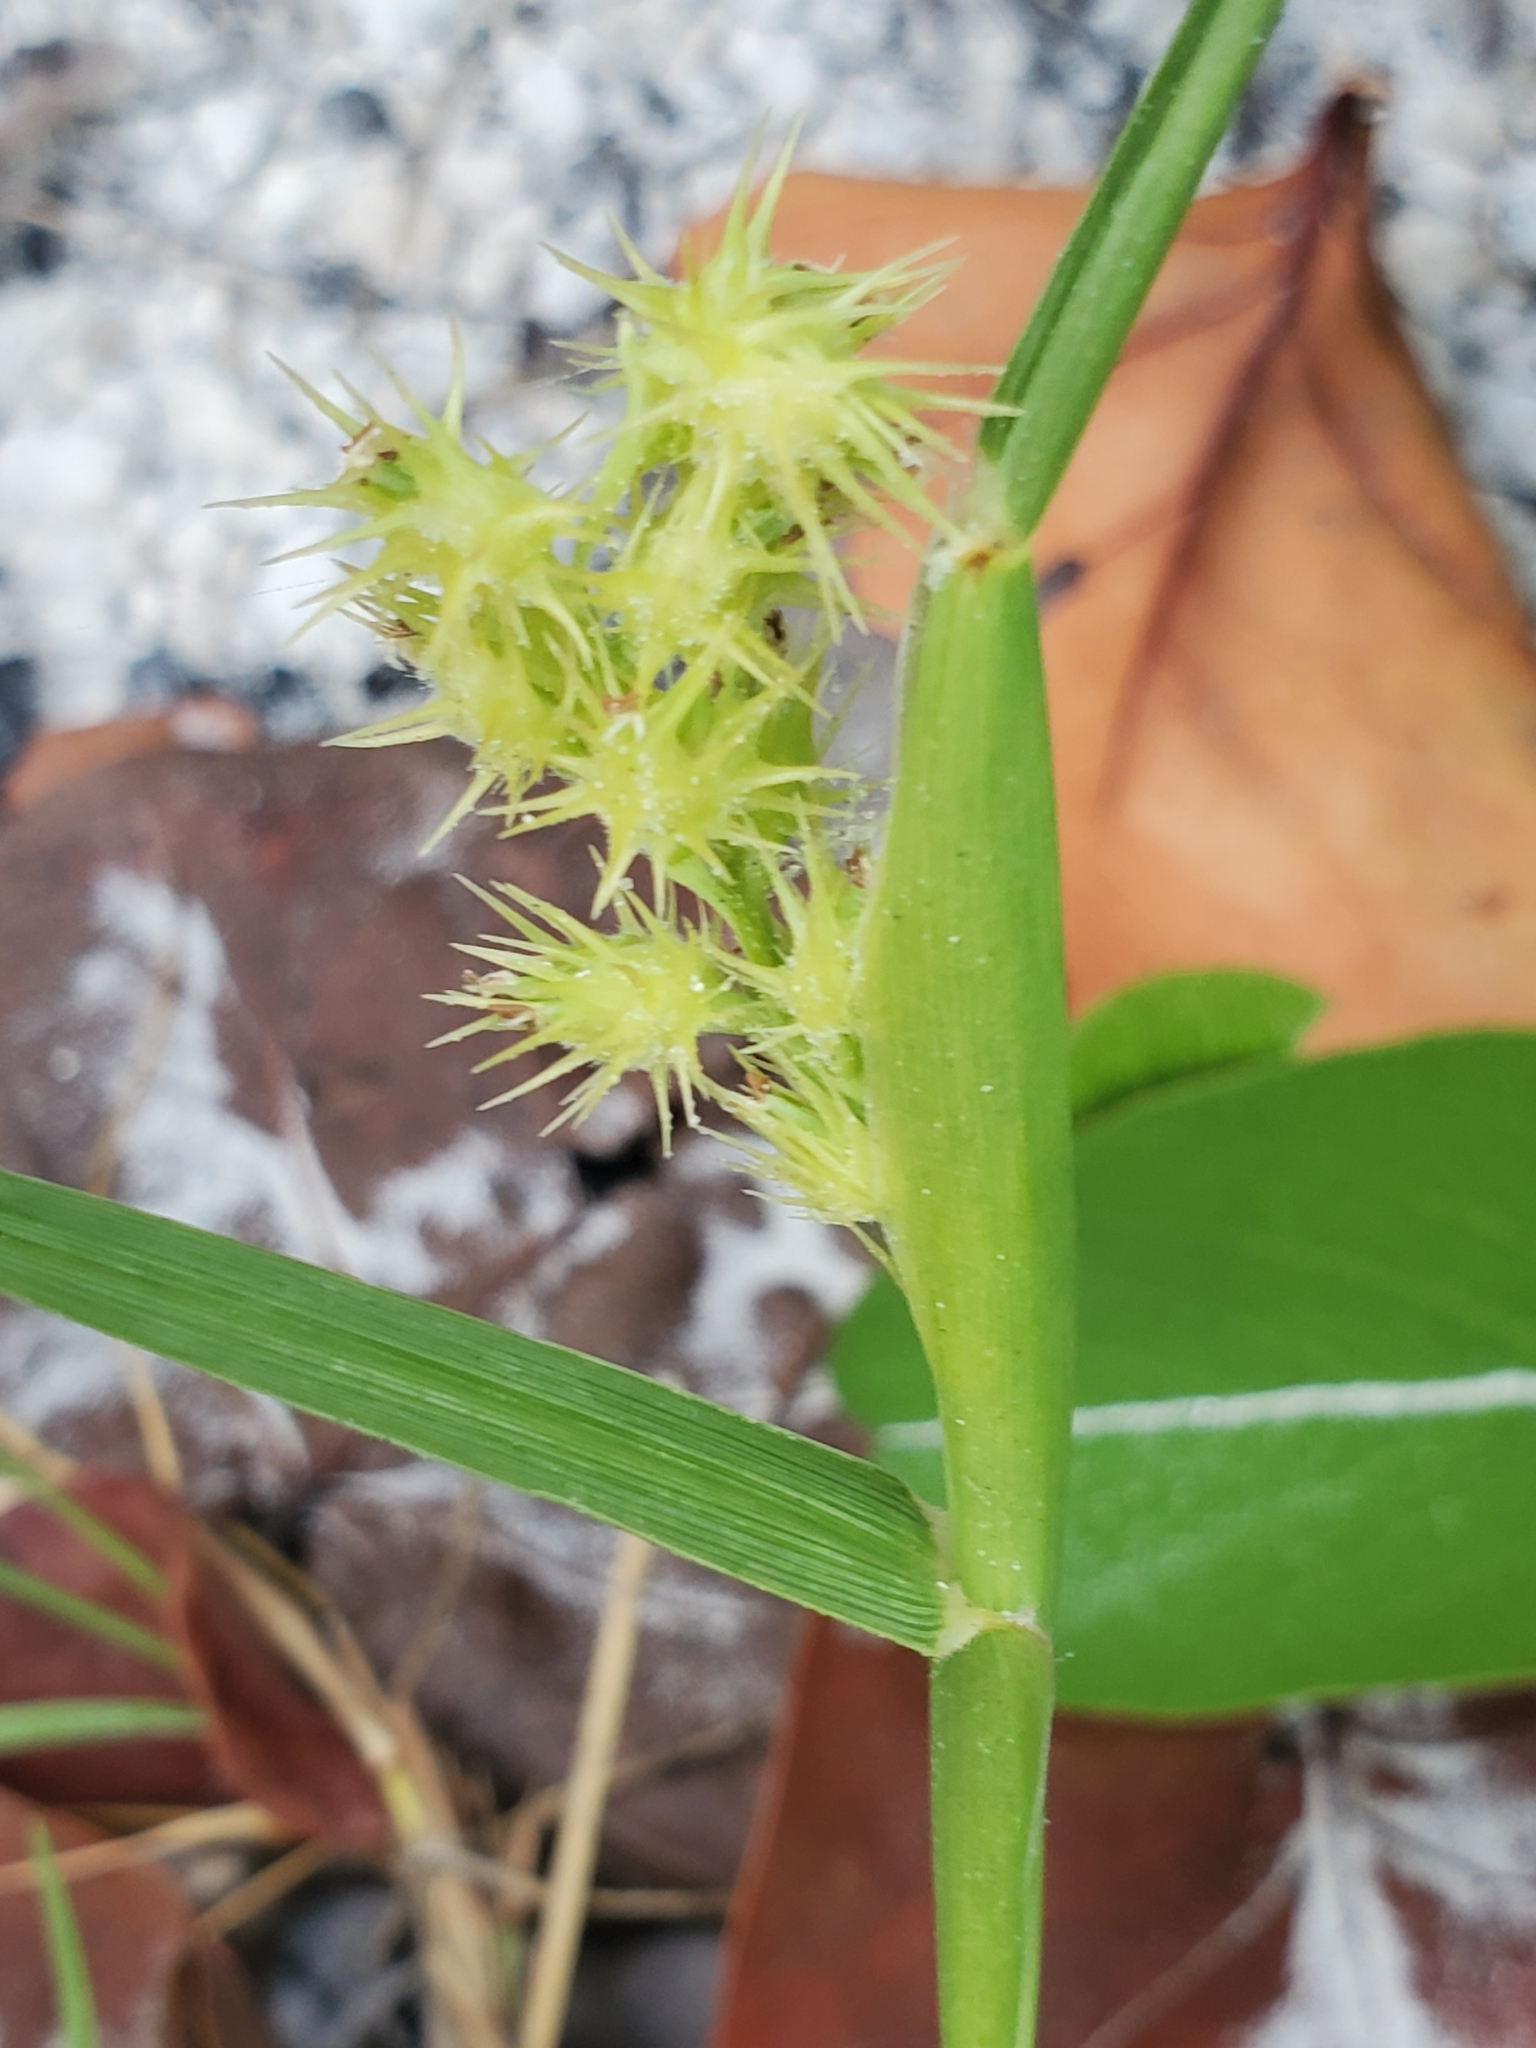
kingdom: Plantae
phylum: Tracheophyta
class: Liliopsida
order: Poales
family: Poaceae
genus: Cenchrus
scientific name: Cenchrus spinifex
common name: Coast sandbur
